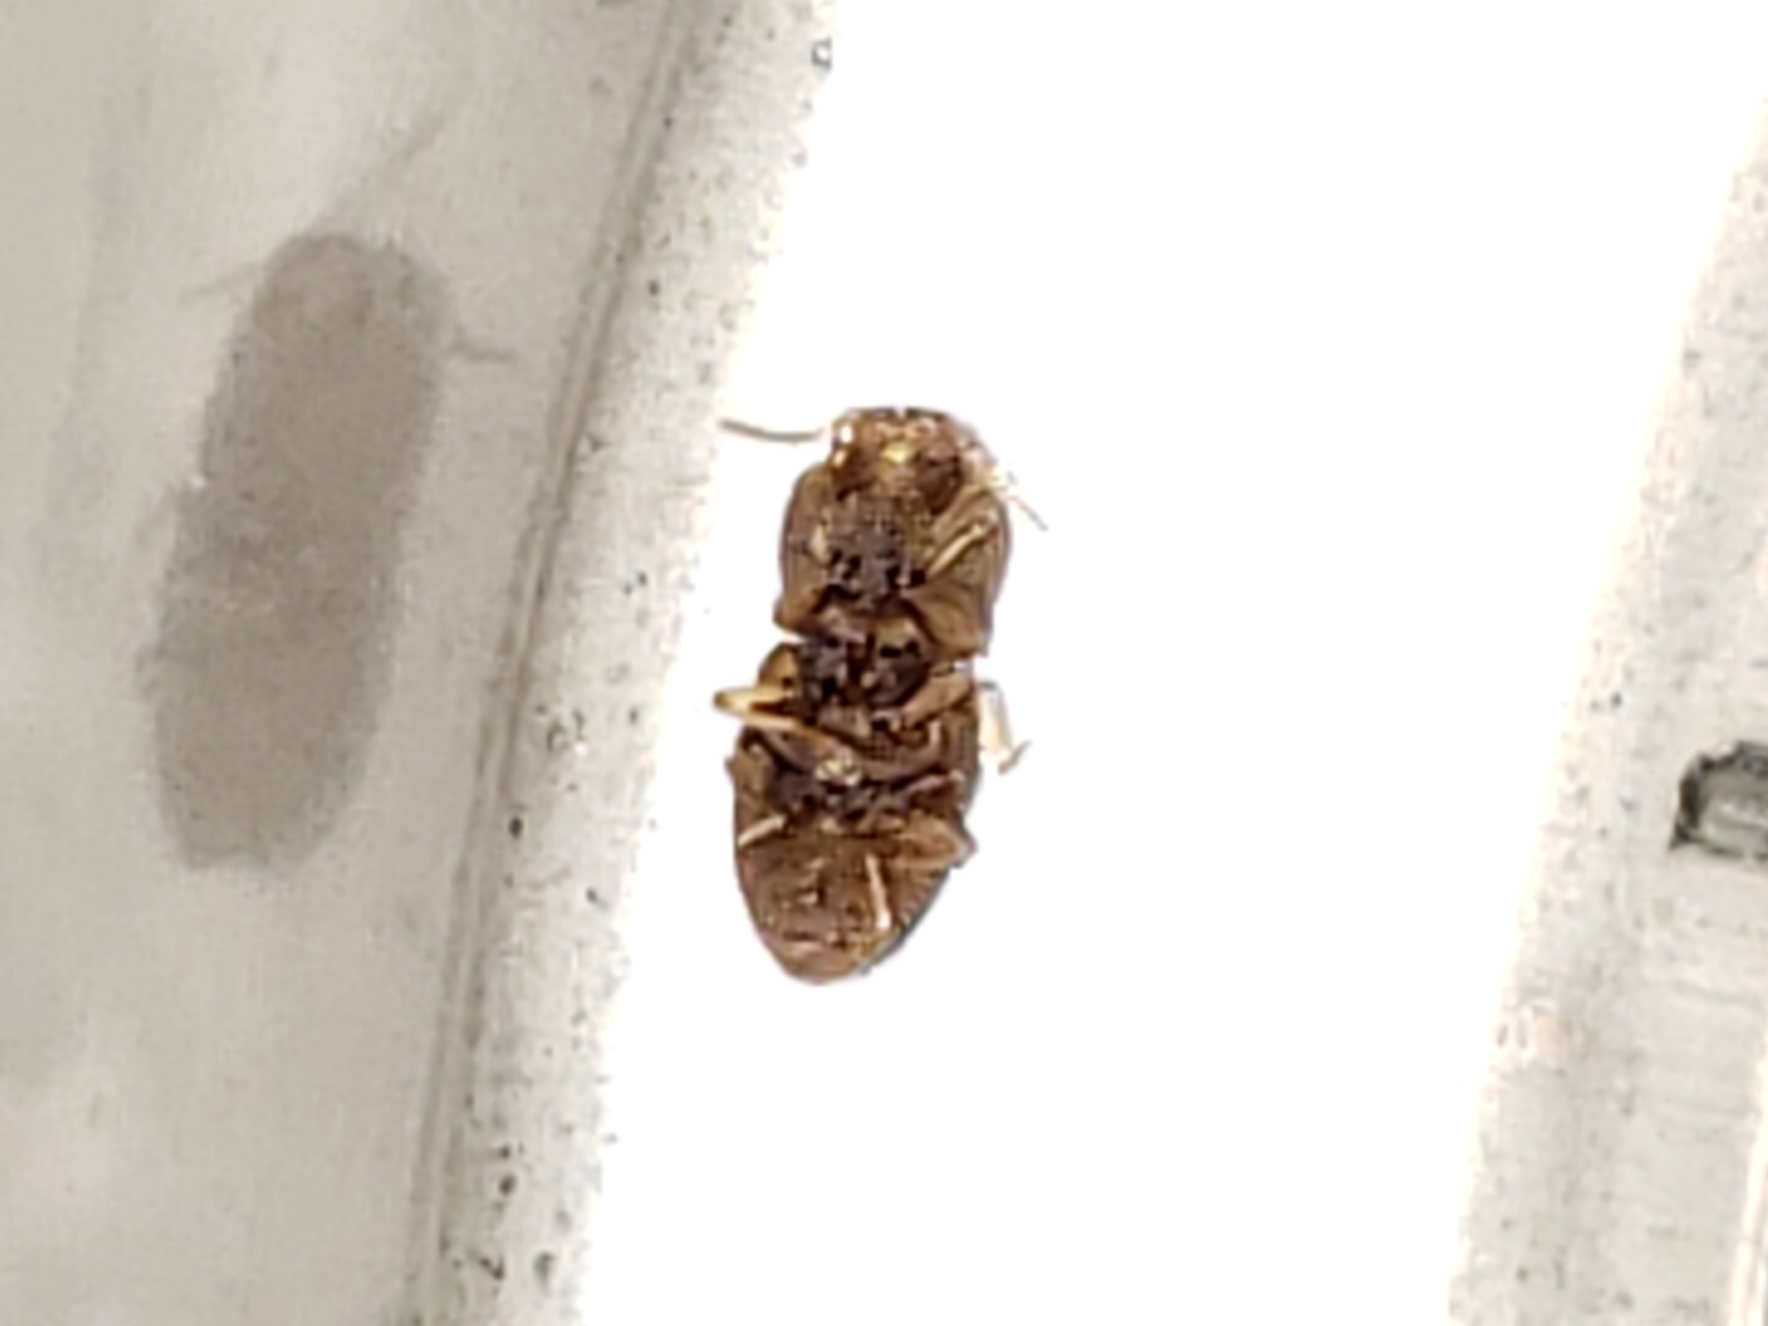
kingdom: Animalia
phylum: Arthropoda
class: Insecta
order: Coleoptera
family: Elateridae
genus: Rismethus
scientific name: Rismethus
